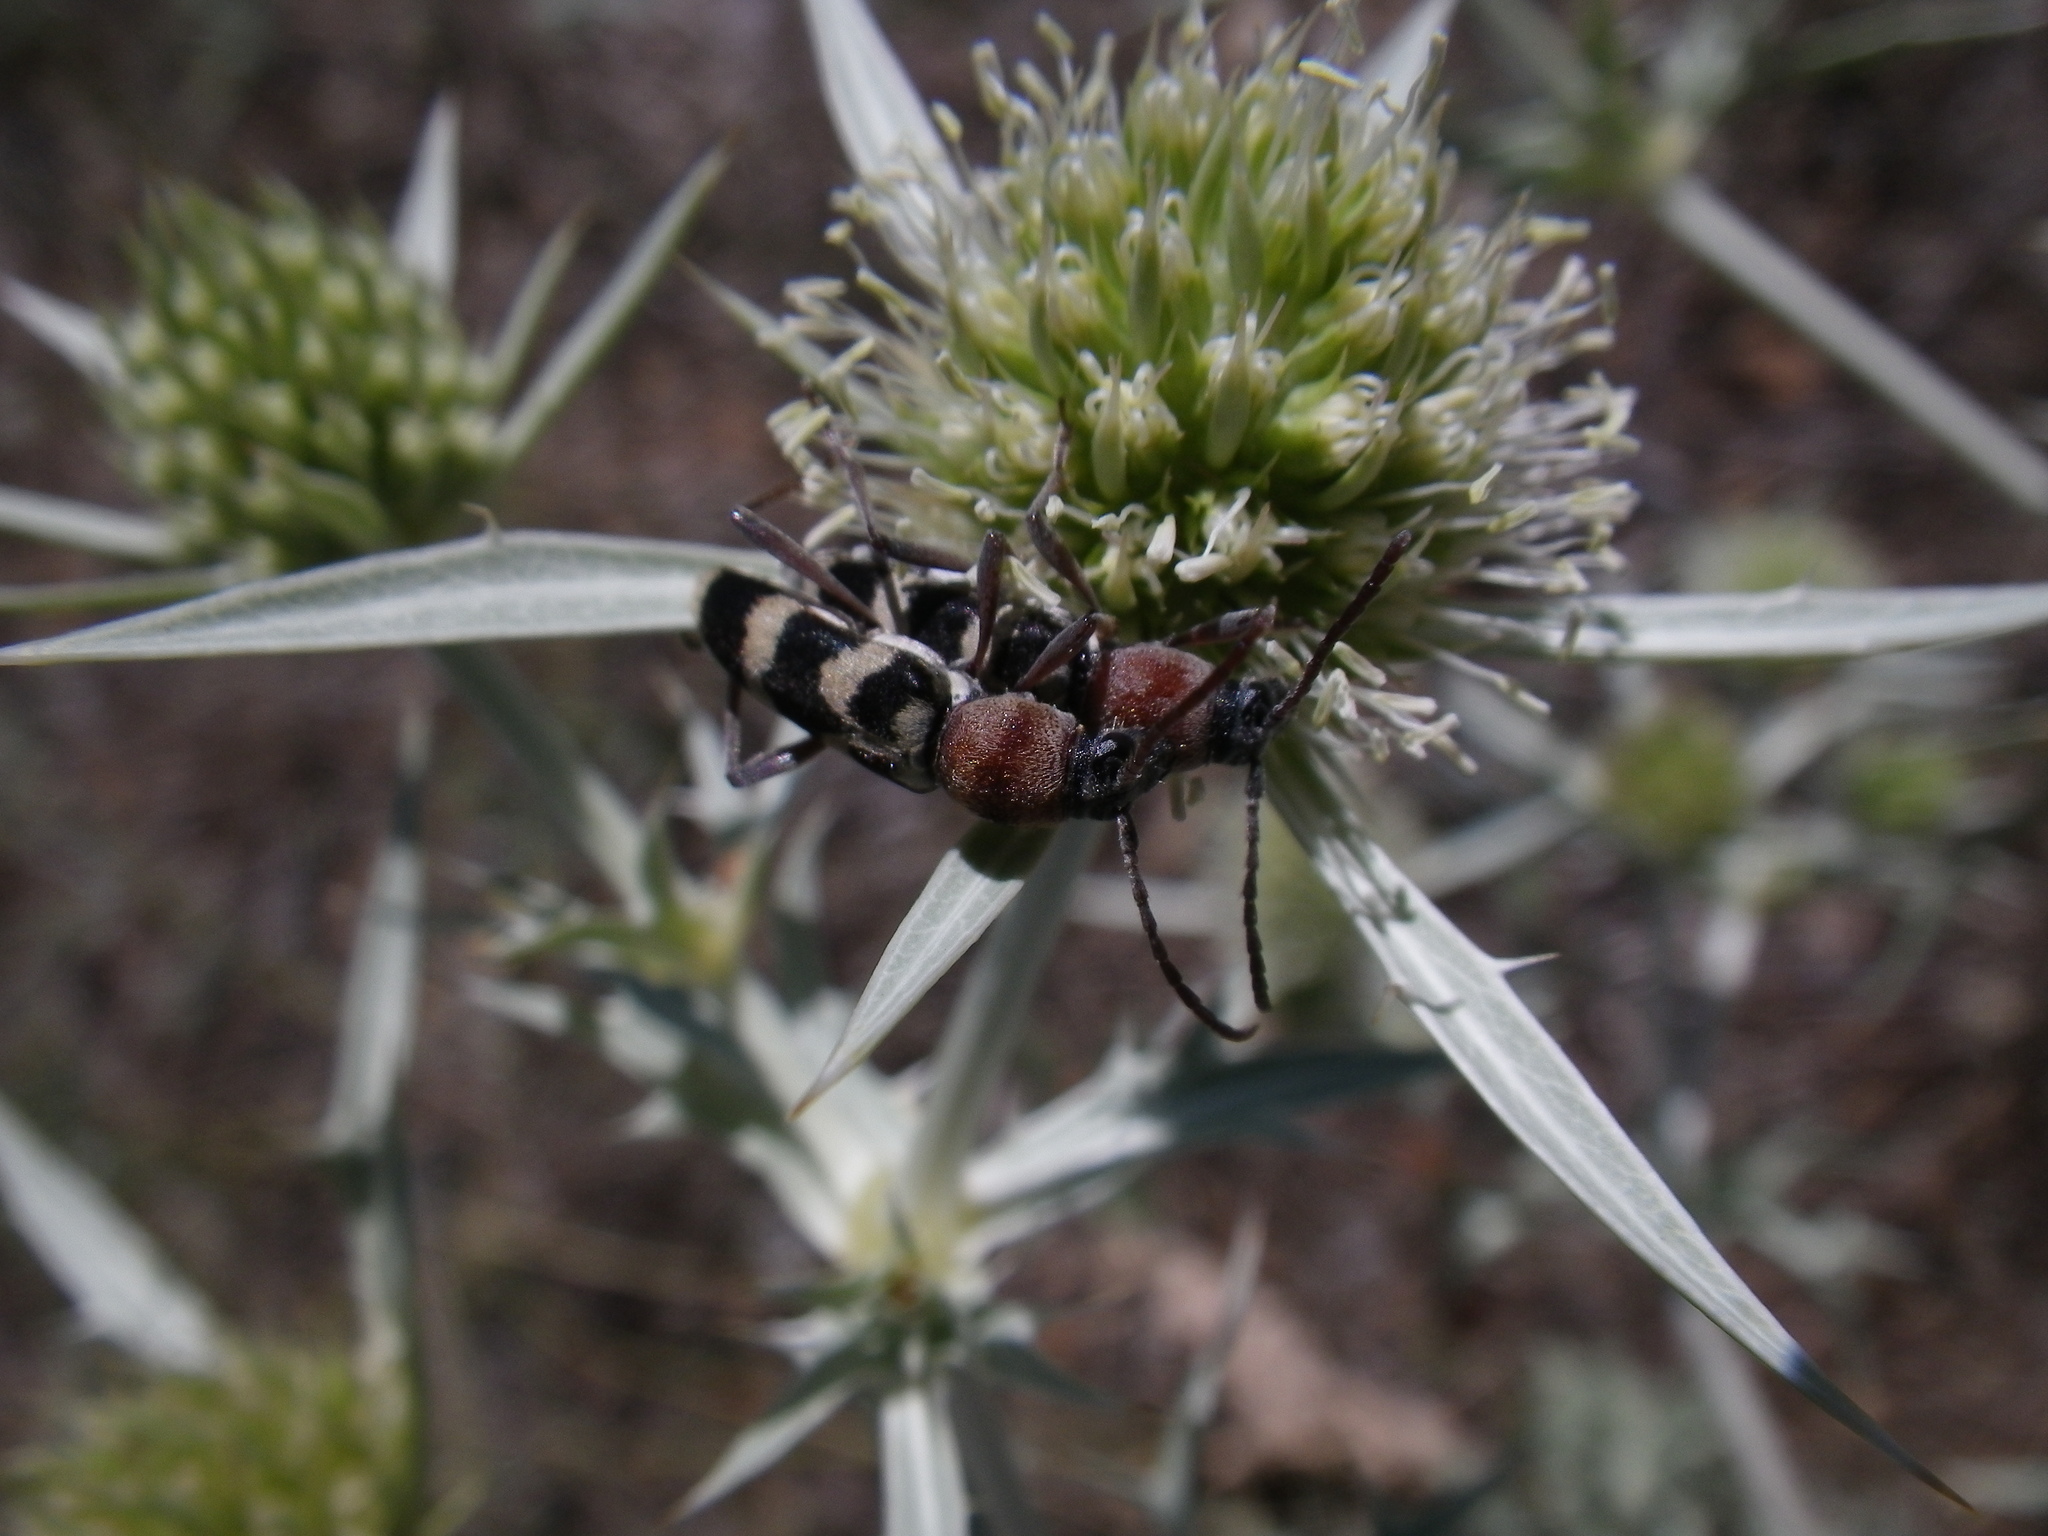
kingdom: Animalia
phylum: Arthropoda
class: Insecta
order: Coleoptera
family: Cerambycidae
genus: Chlorophorus
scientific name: Chlorophorus trifasciatus
